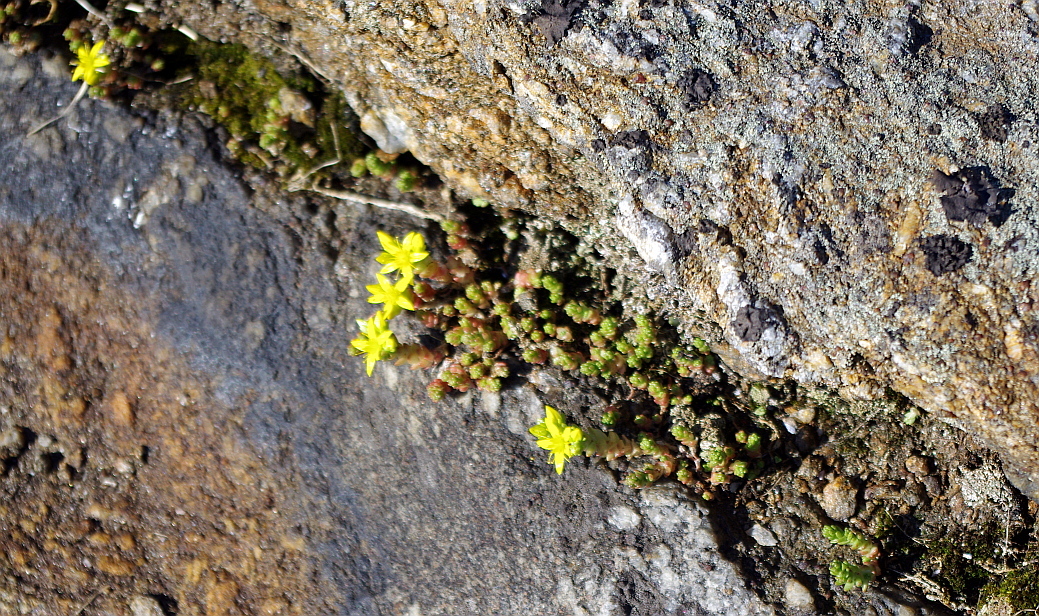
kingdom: Plantae
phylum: Tracheophyta
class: Magnoliopsida
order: Saxifragales
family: Crassulaceae
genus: Sedum
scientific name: Sedum acre
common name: Biting stonecrop
